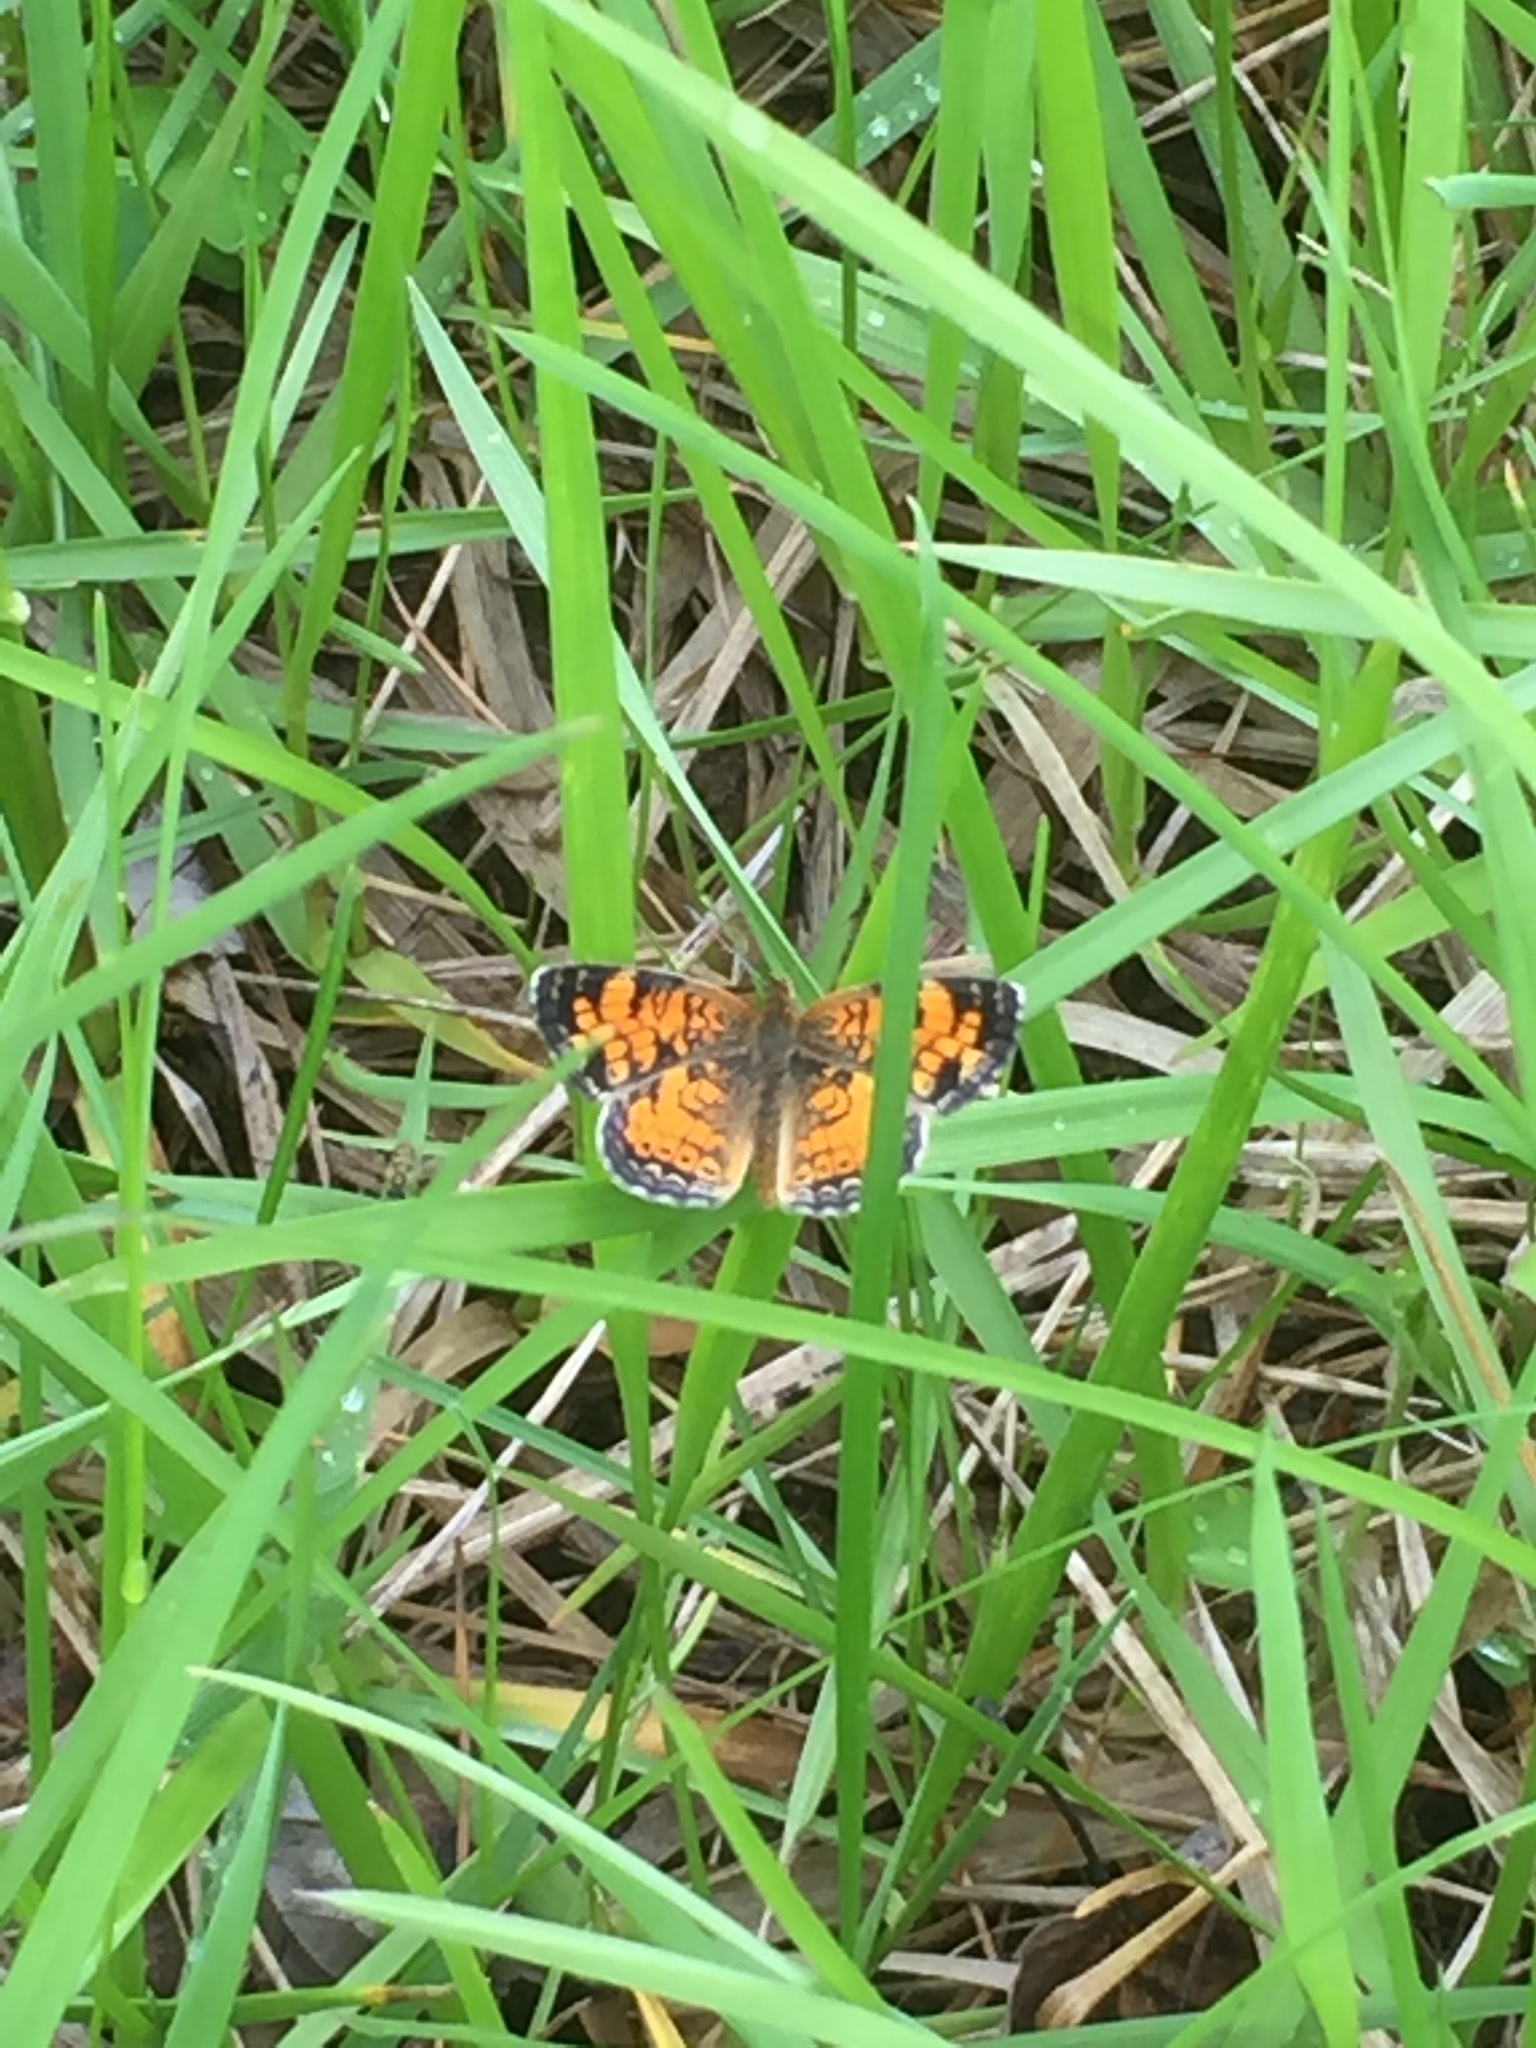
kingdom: Animalia
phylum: Arthropoda
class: Insecta
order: Lepidoptera
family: Nymphalidae
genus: Phyciodes
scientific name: Phyciodes tharos
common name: Pearl crescent
